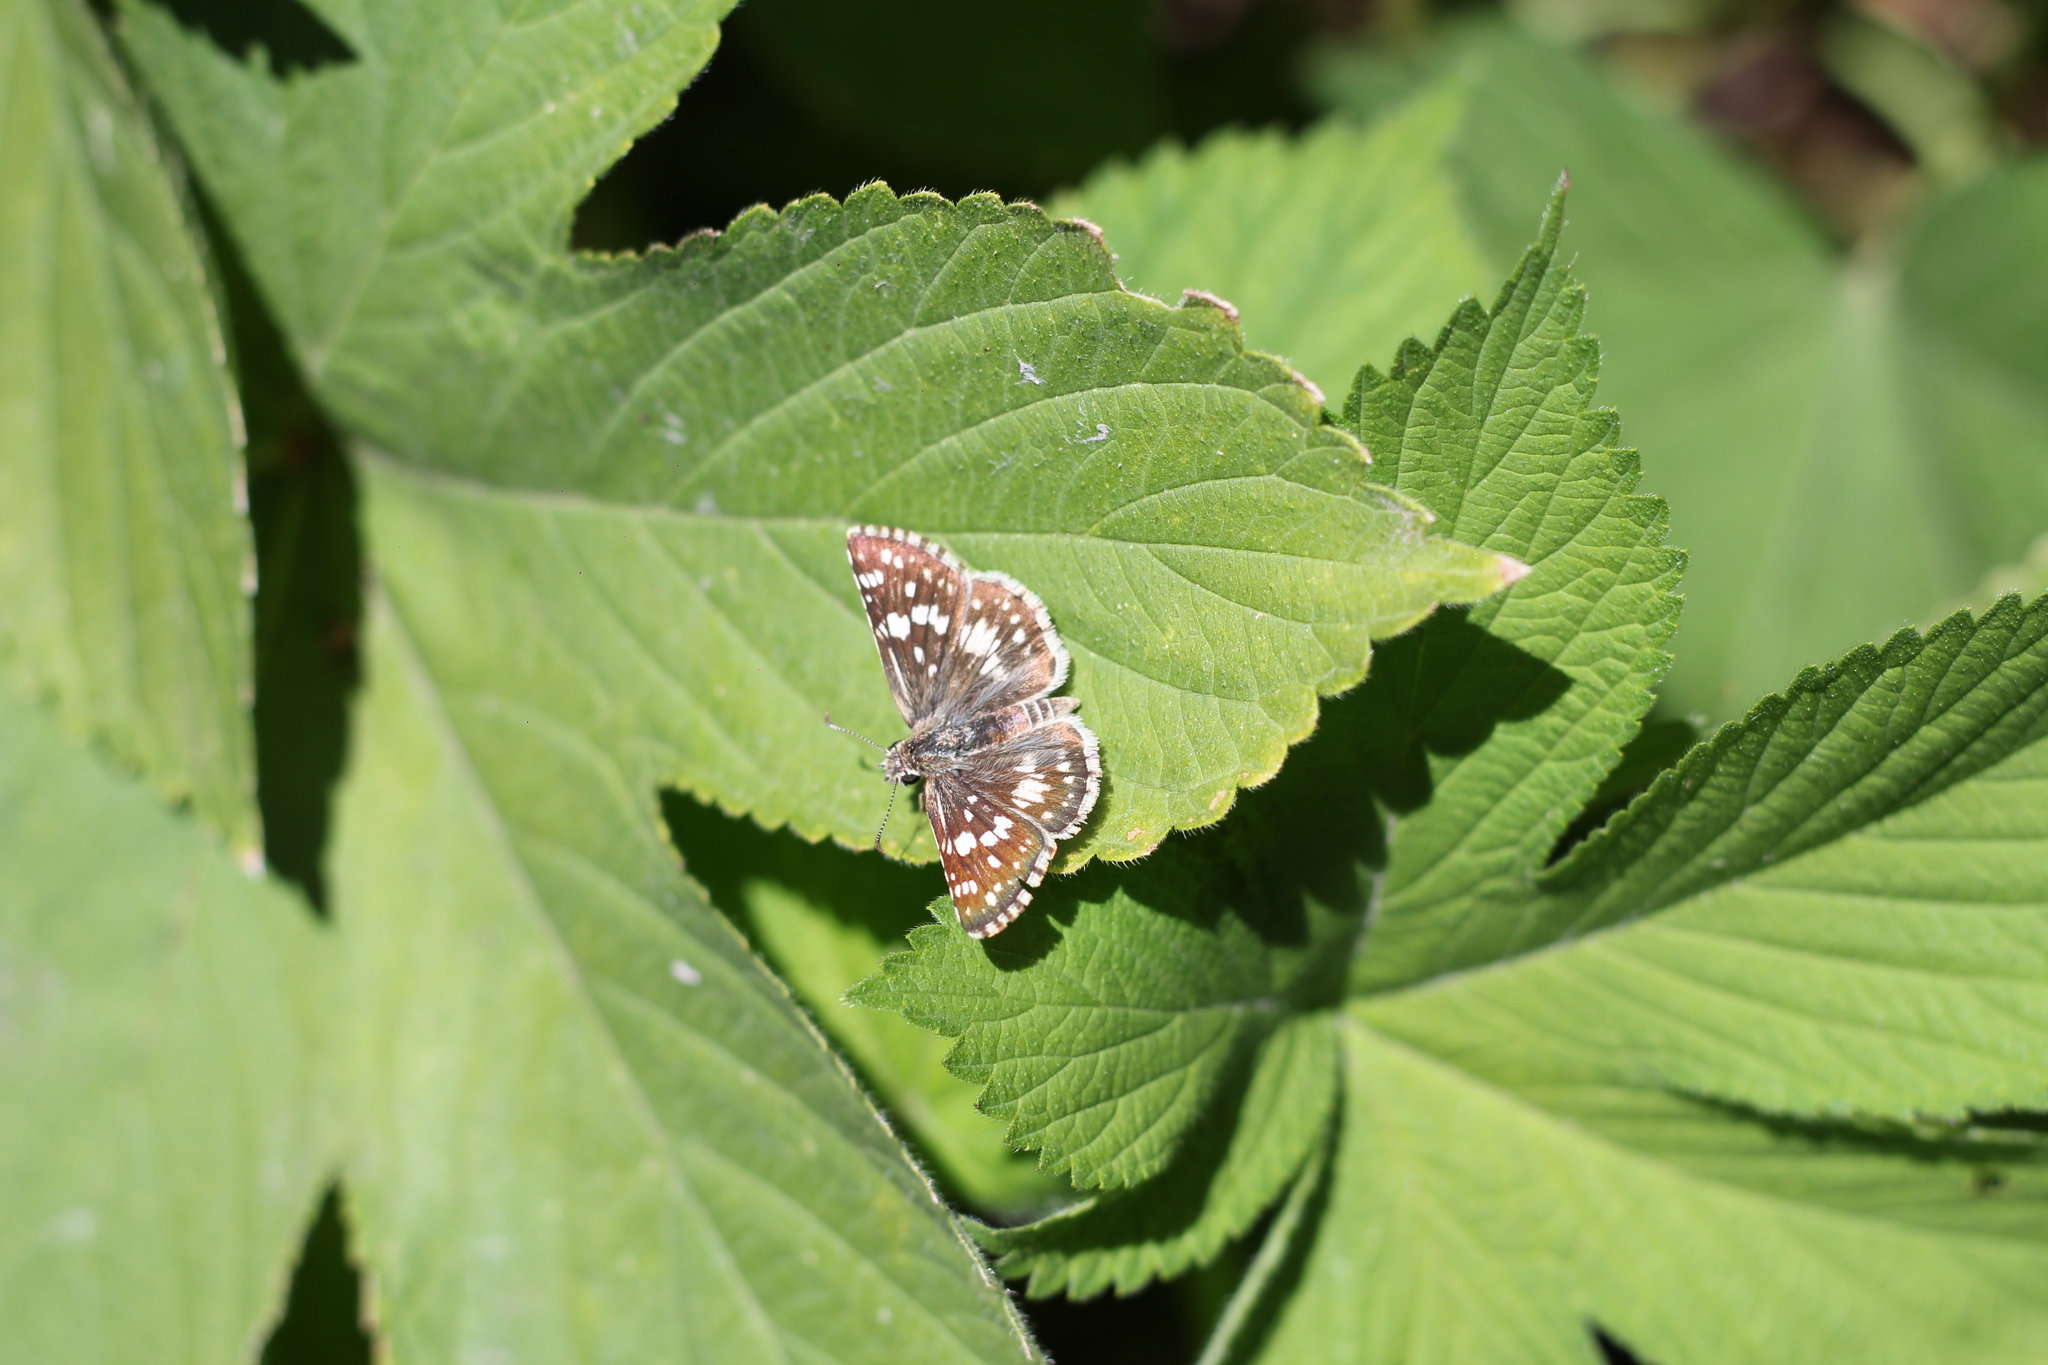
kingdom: Animalia
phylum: Arthropoda
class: Insecta
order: Lepidoptera
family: Hesperiidae
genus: Burnsius
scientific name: Burnsius orcynoides
